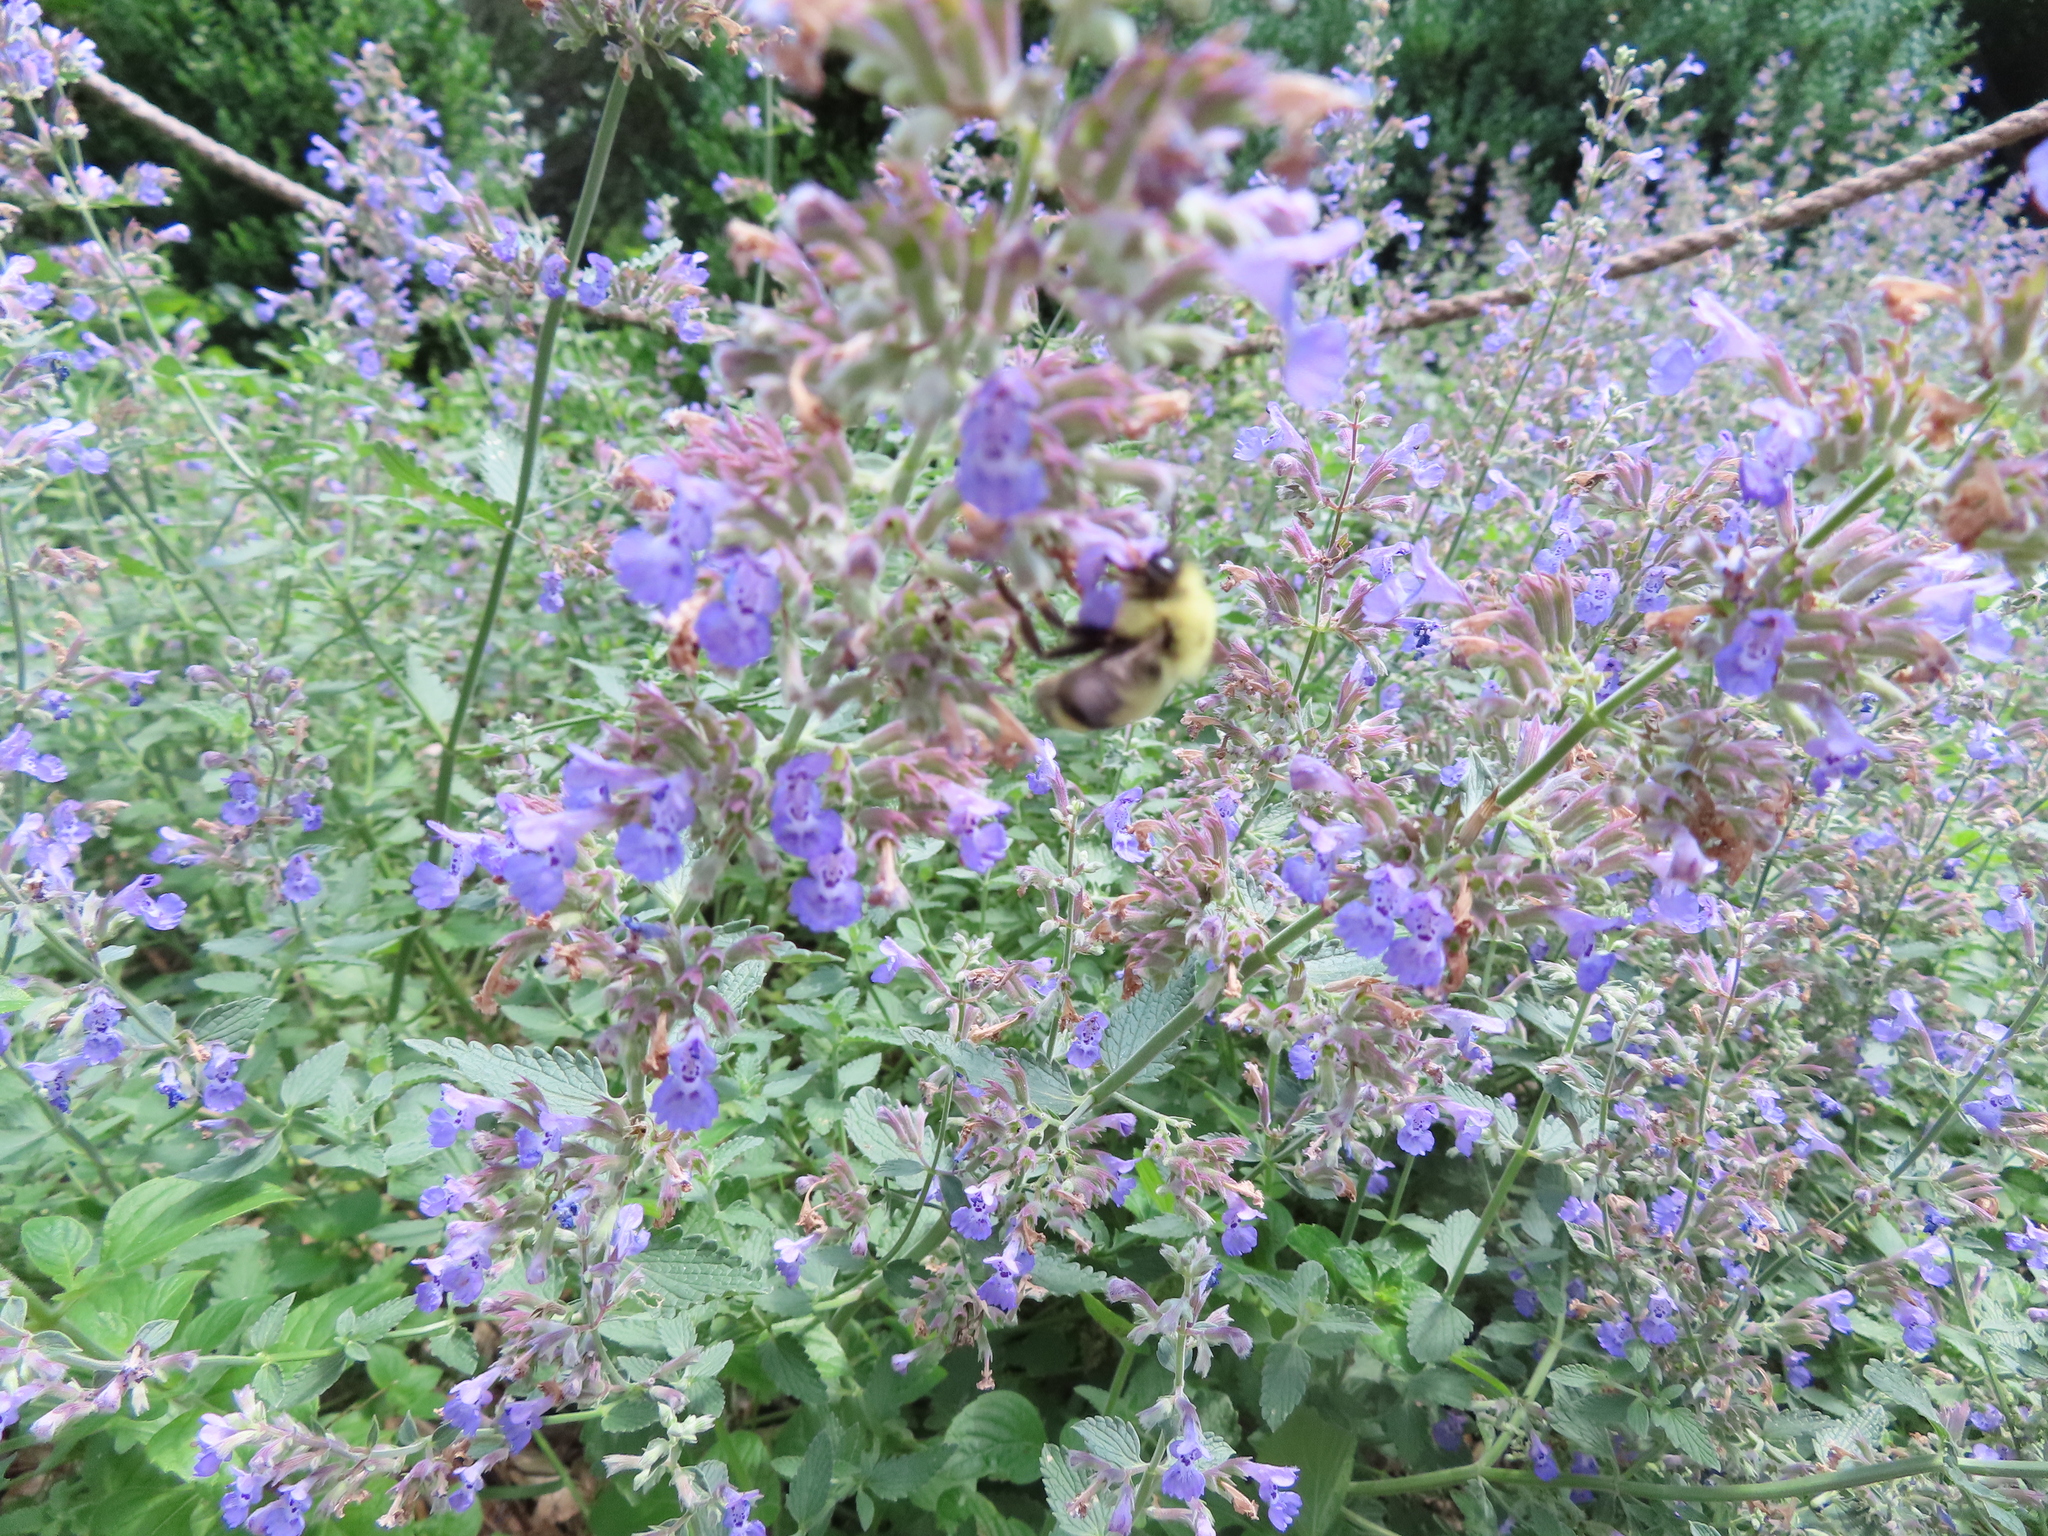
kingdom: Animalia
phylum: Arthropoda
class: Insecta
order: Hymenoptera
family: Apidae
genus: Bombus
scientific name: Bombus bimaculatus
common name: Two-spotted bumble bee
